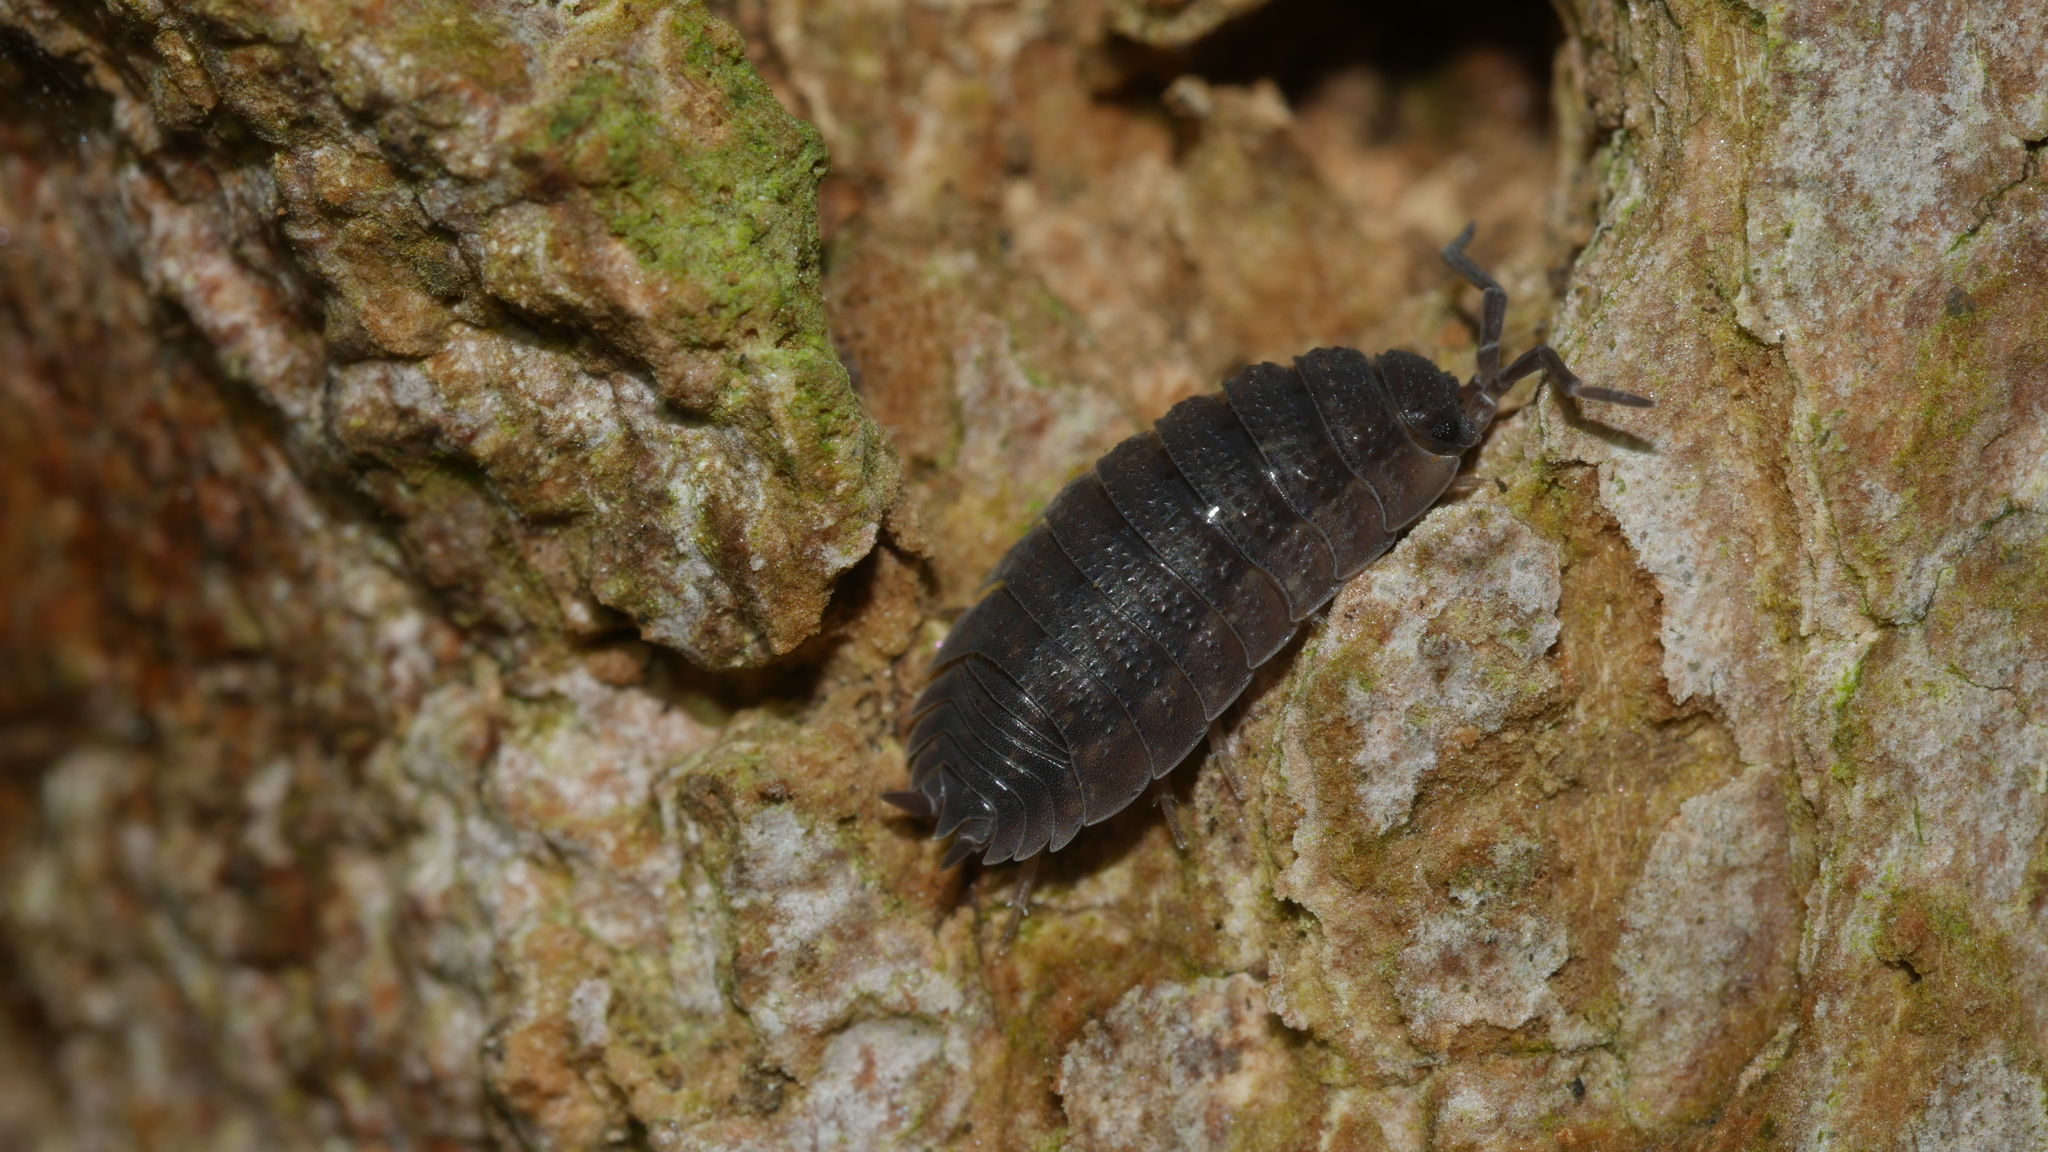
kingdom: Animalia
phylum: Arthropoda
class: Malacostraca
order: Isopoda
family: Porcellionidae
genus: Porcellio
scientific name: Porcellio scaber
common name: Common rough woodlouse
